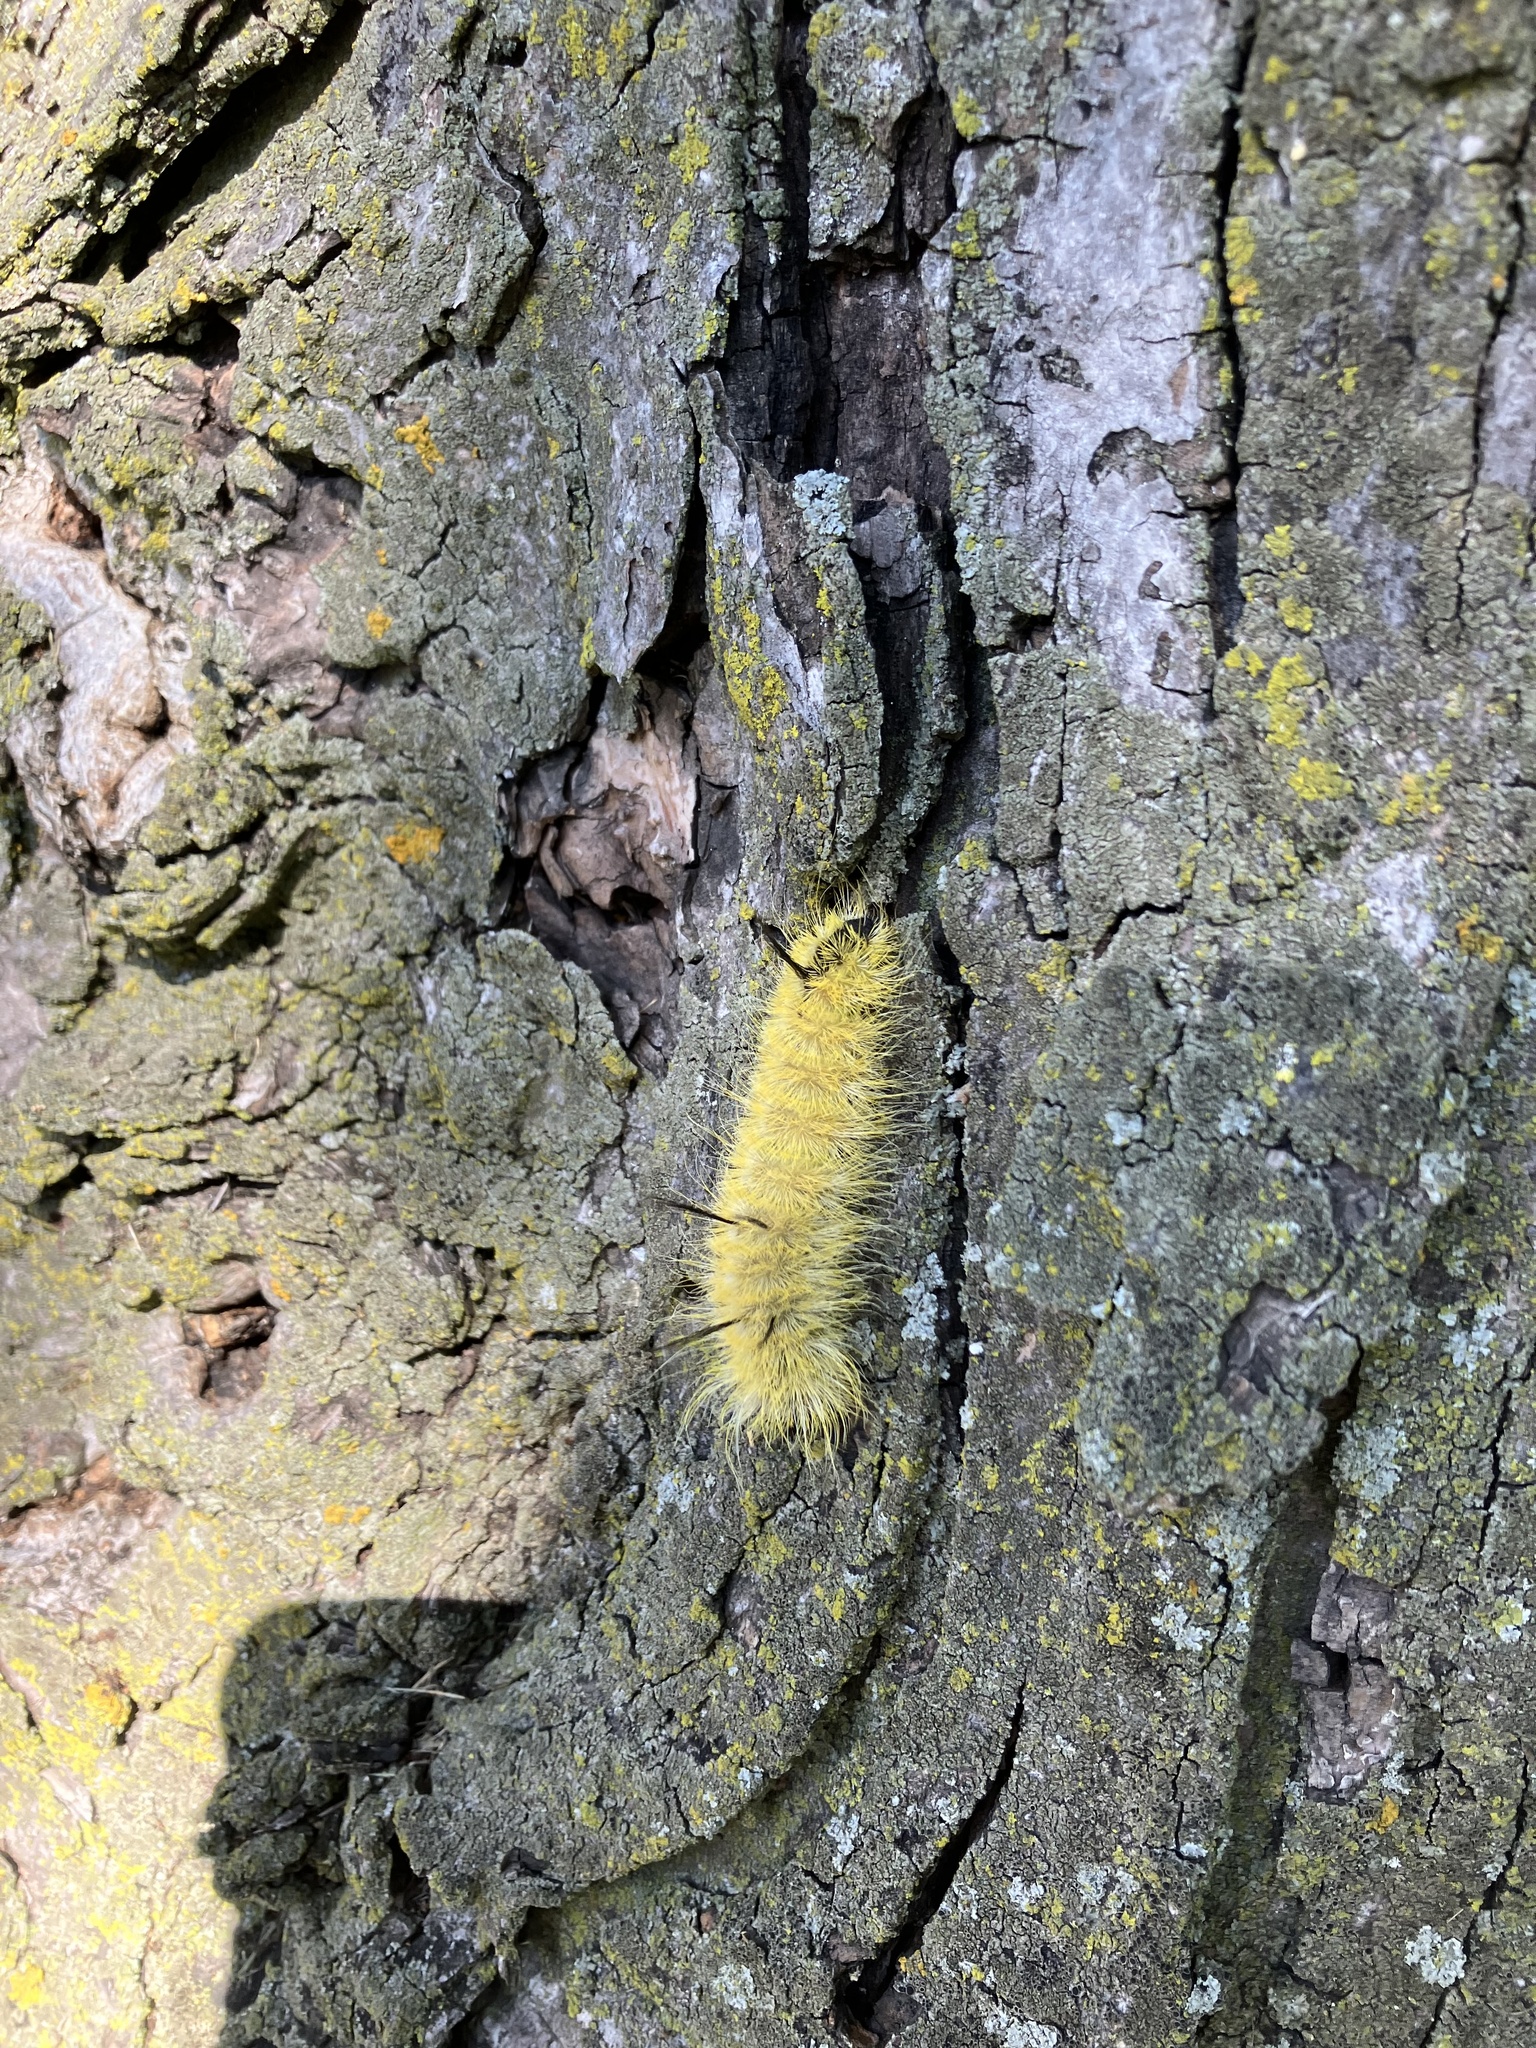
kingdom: Animalia
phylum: Arthropoda
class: Insecta
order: Lepidoptera
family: Noctuidae
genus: Acronicta
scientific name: Acronicta americana
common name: American dagger
